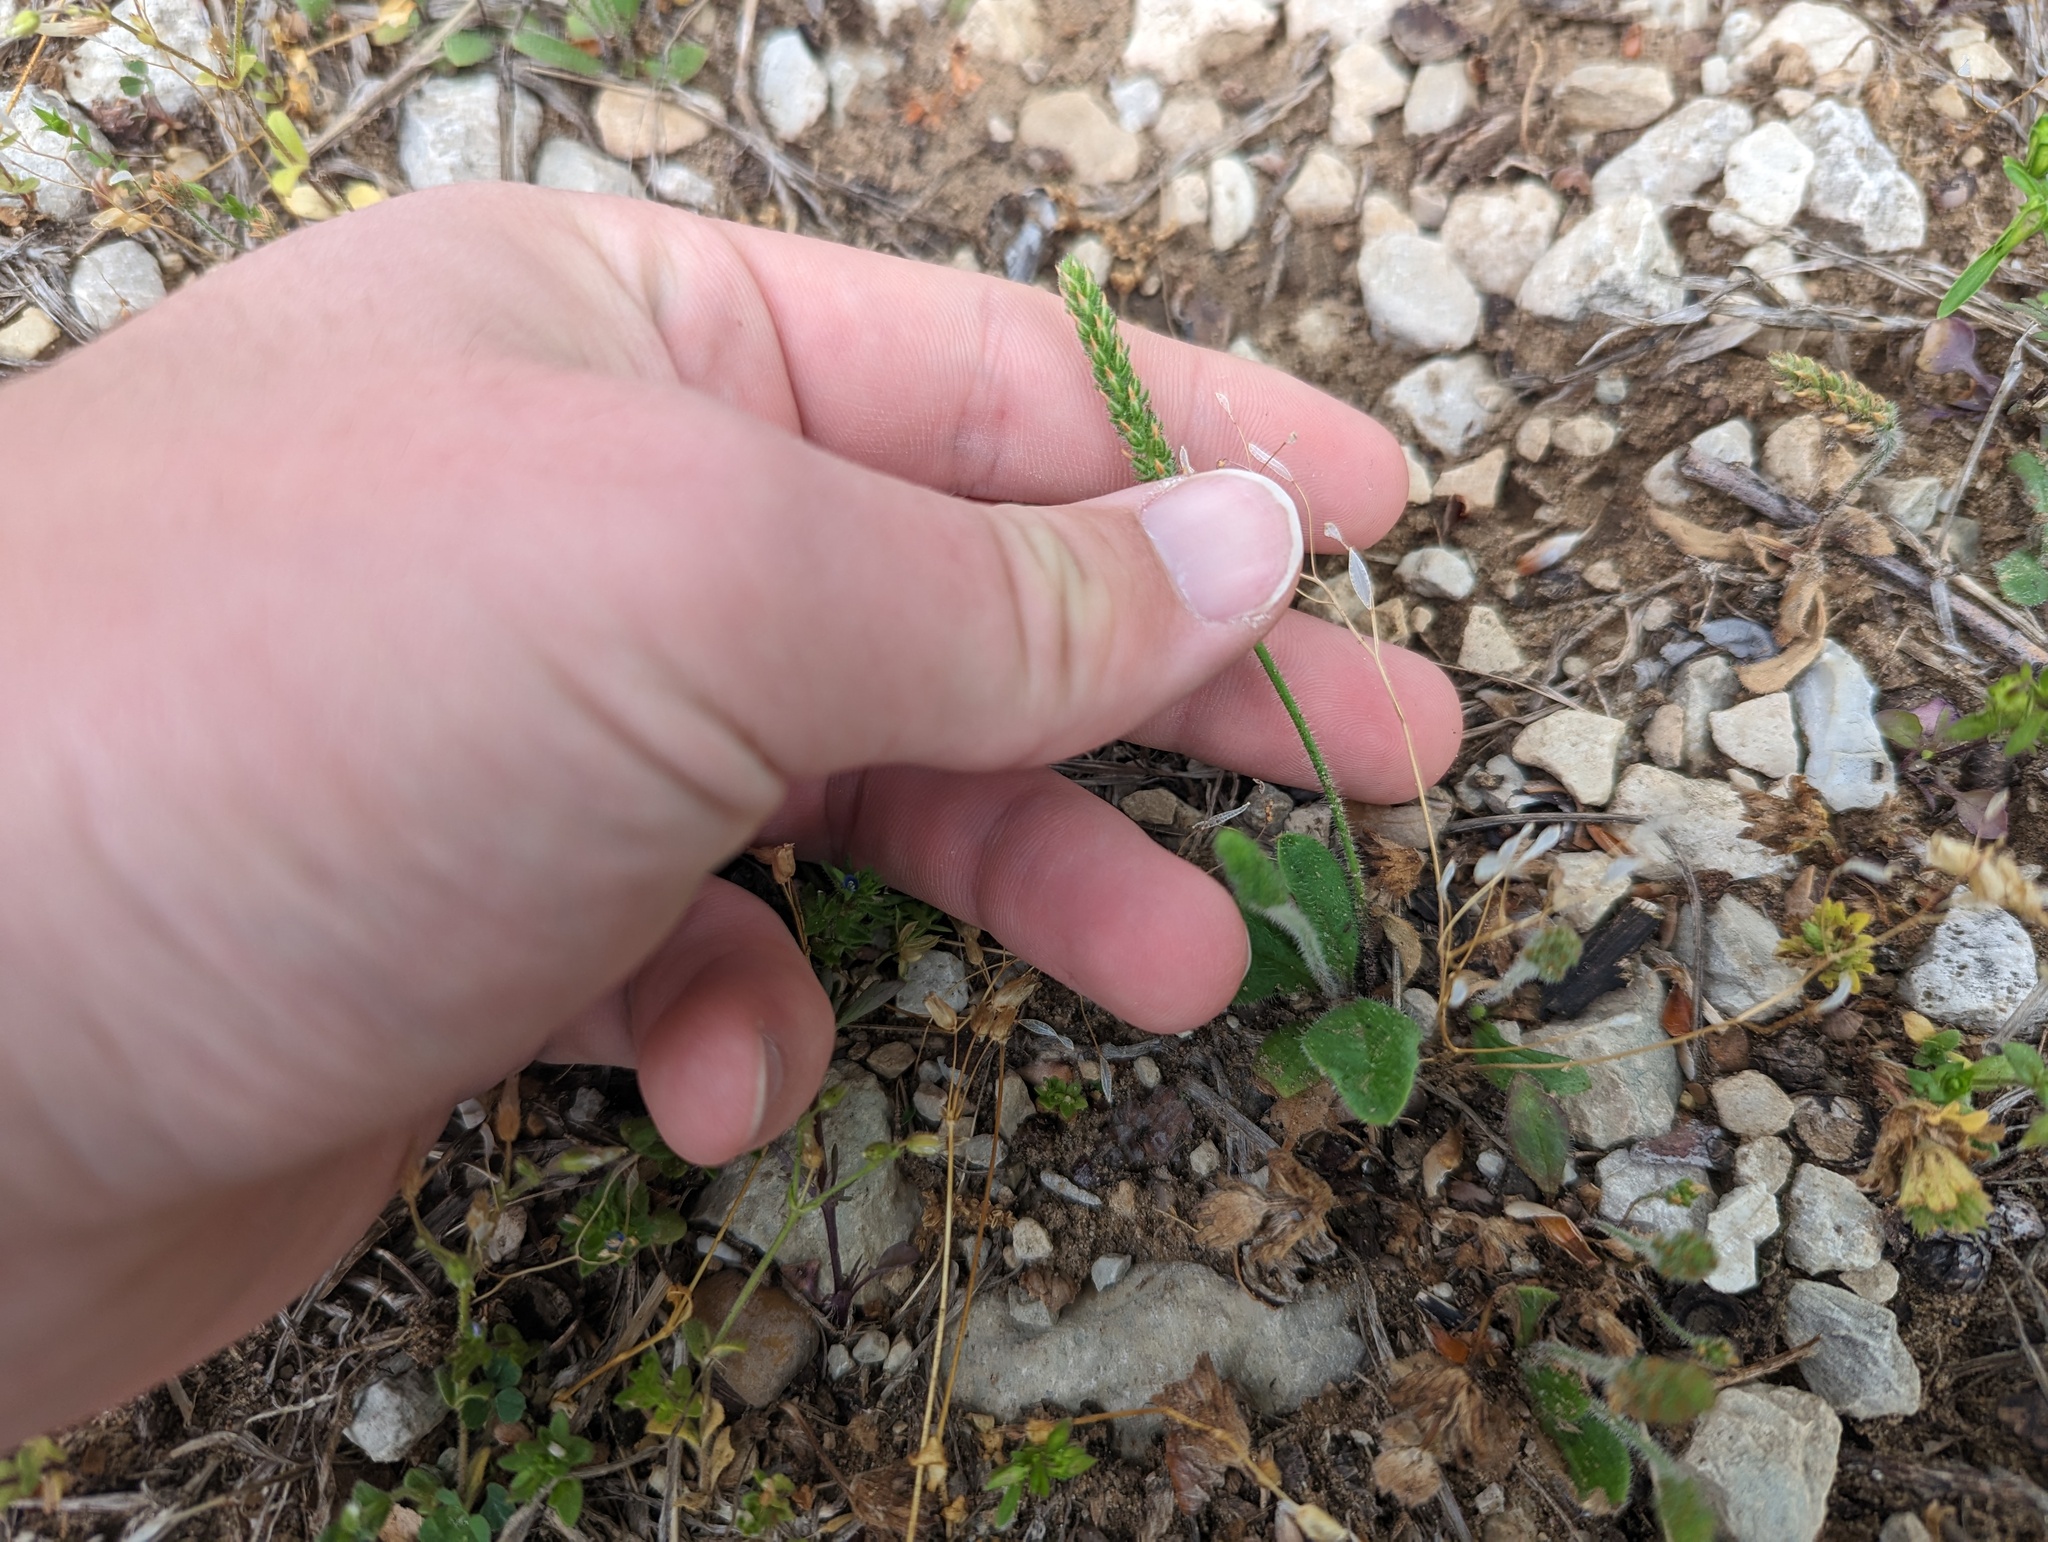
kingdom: Plantae
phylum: Tracheophyta
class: Magnoliopsida
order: Lamiales
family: Plantaginaceae
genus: Plantago
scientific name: Plantago virginica
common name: Hoary plantain
